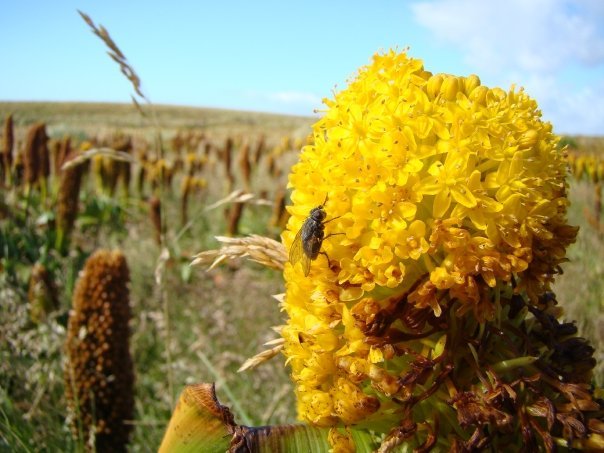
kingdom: Plantae
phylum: Tracheophyta
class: Liliopsida
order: Asparagales
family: Asphodelaceae
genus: Bulbinella
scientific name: Bulbinella rossii
